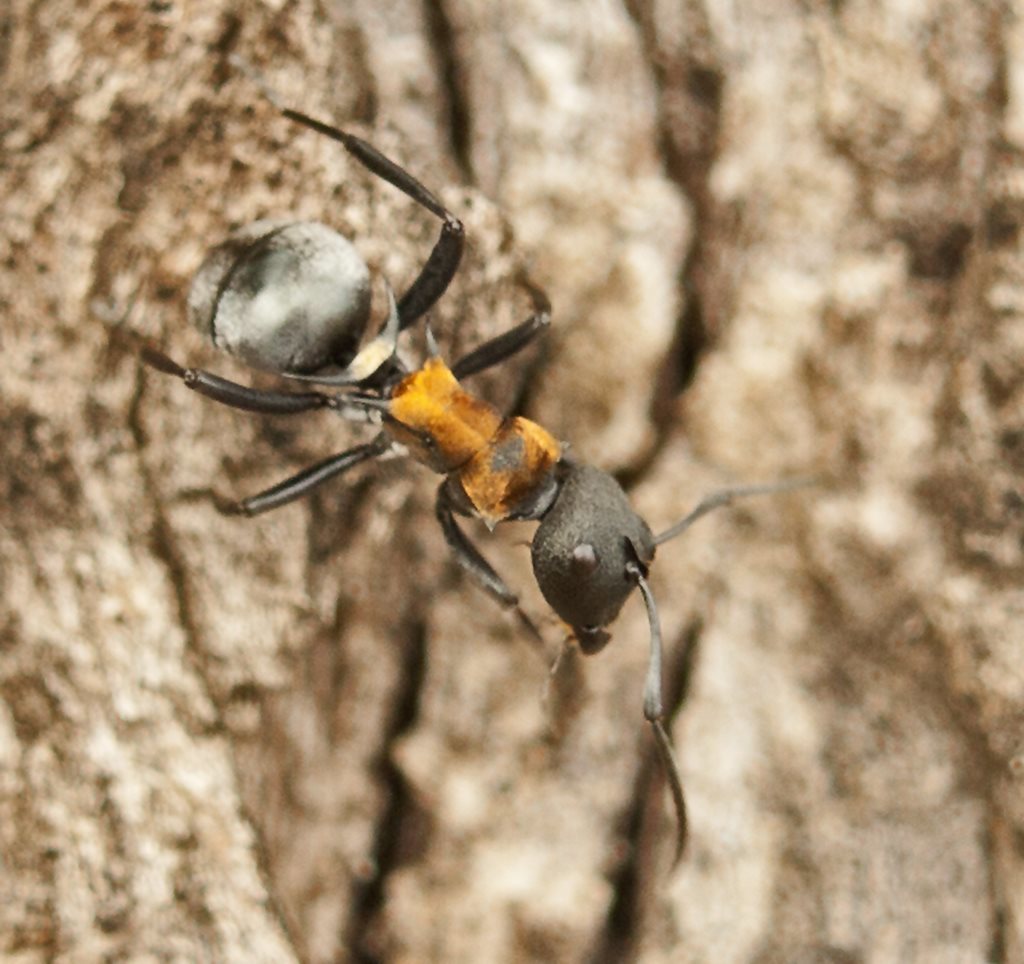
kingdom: Animalia
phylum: Arthropoda
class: Insecta
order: Hymenoptera
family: Formicidae
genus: Polyrhachis
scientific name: Polyrhachis ornata
